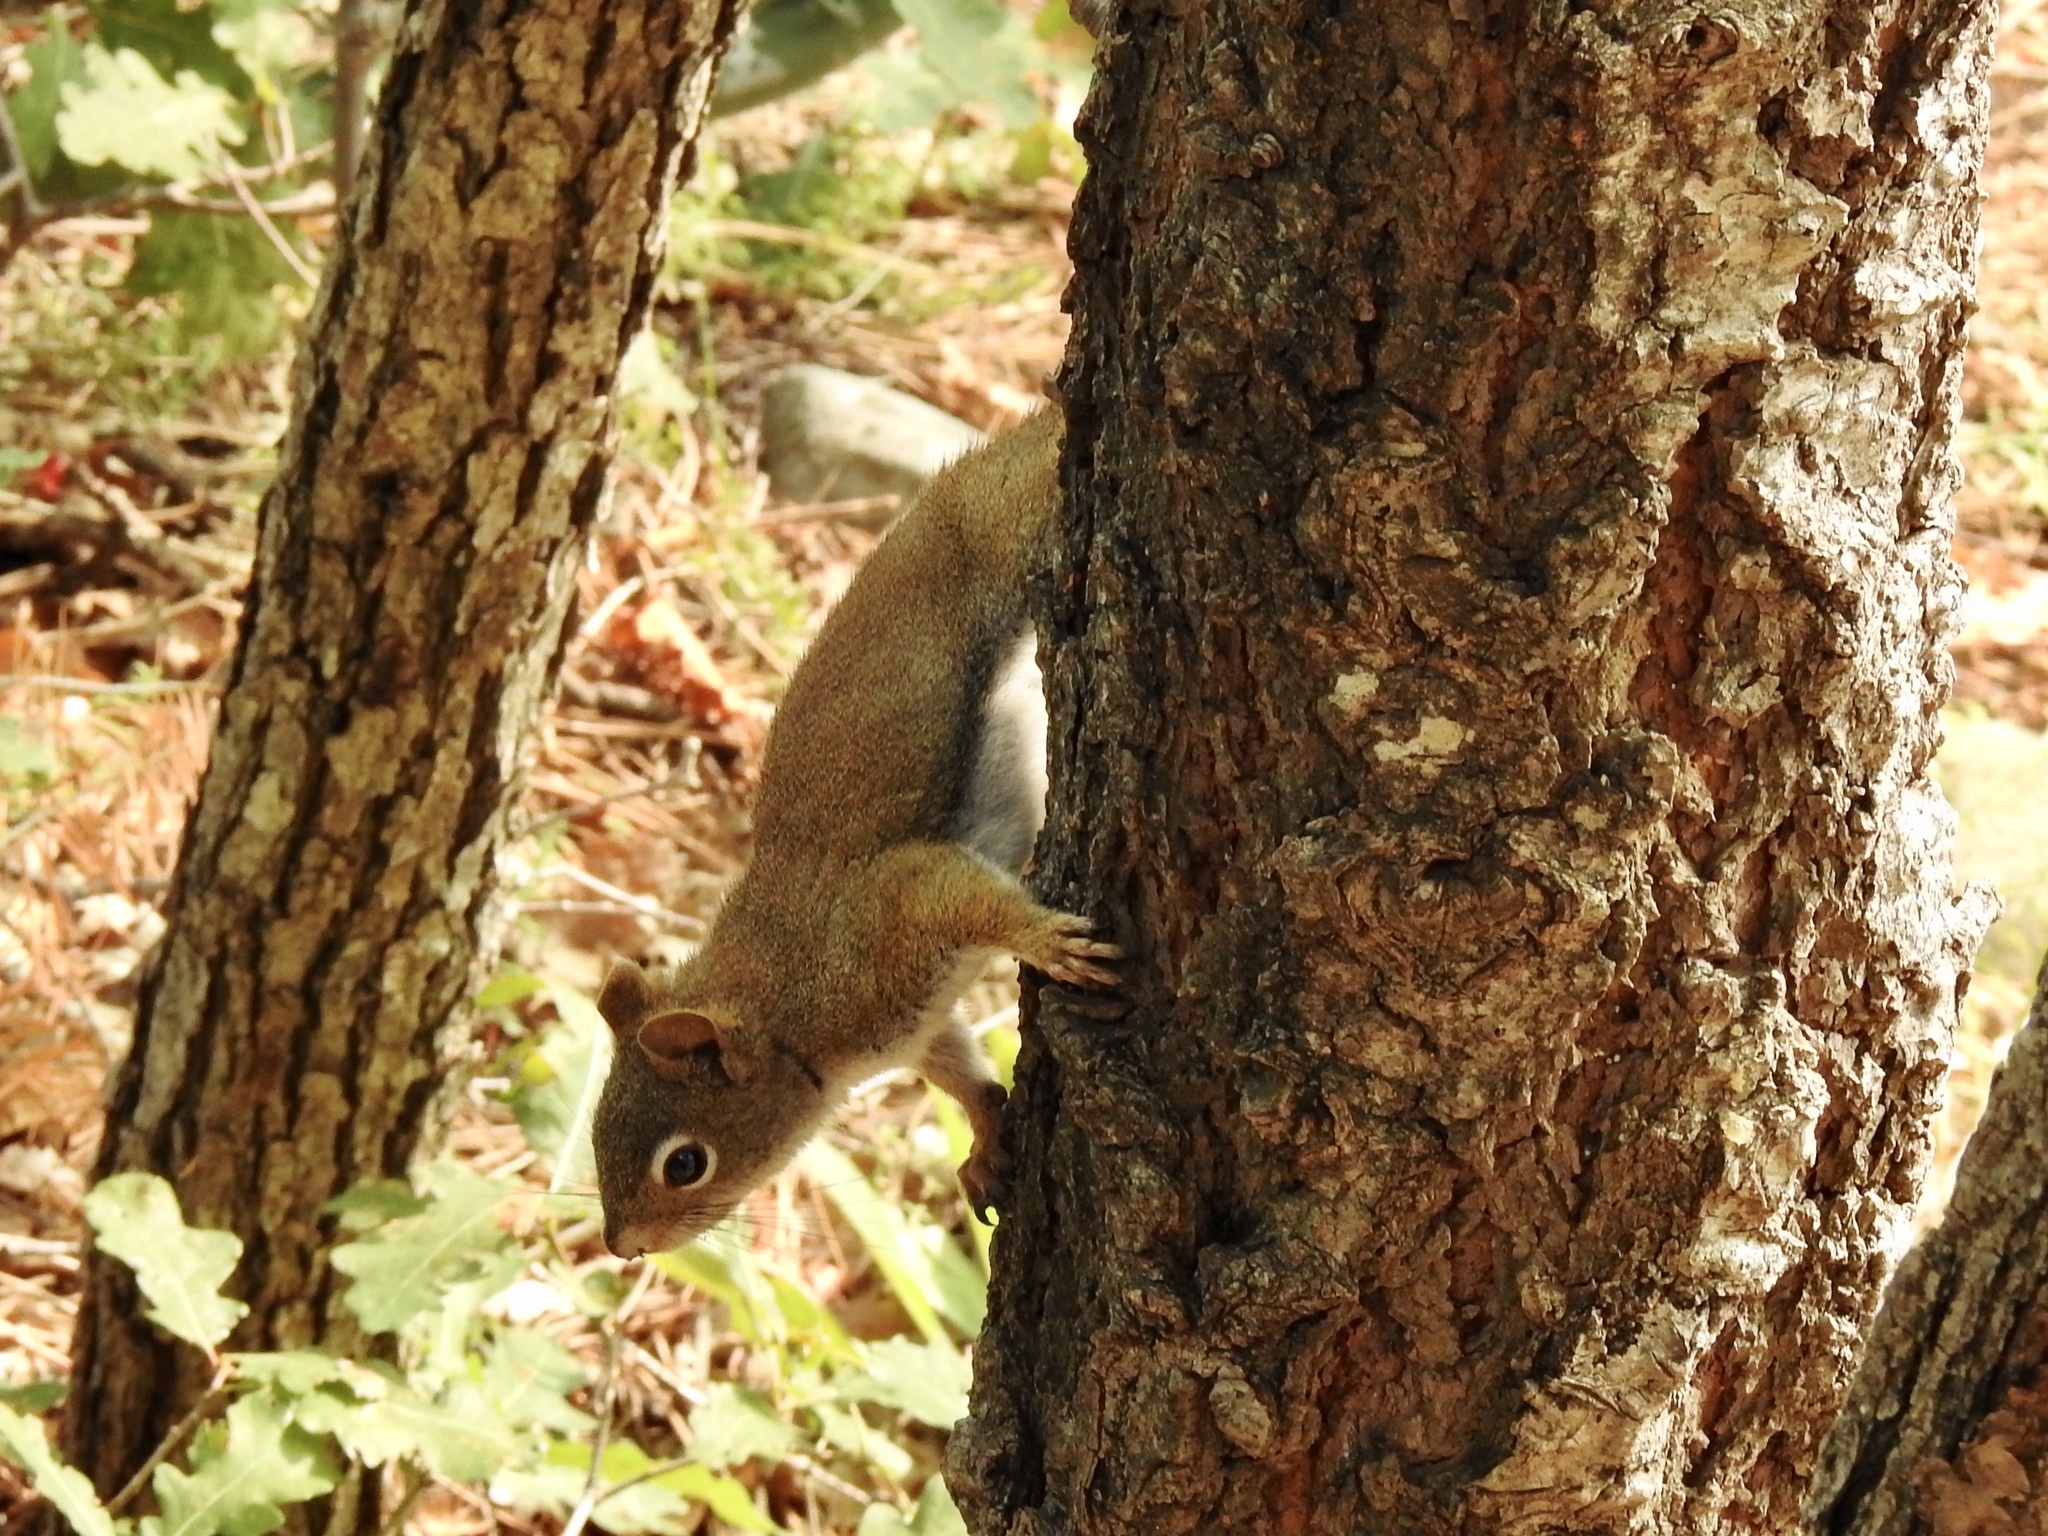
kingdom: Animalia
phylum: Chordata
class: Mammalia
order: Rodentia
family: Sciuridae
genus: Tamiasciurus
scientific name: Tamiasciurus hudsonicus
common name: Red squirrel
